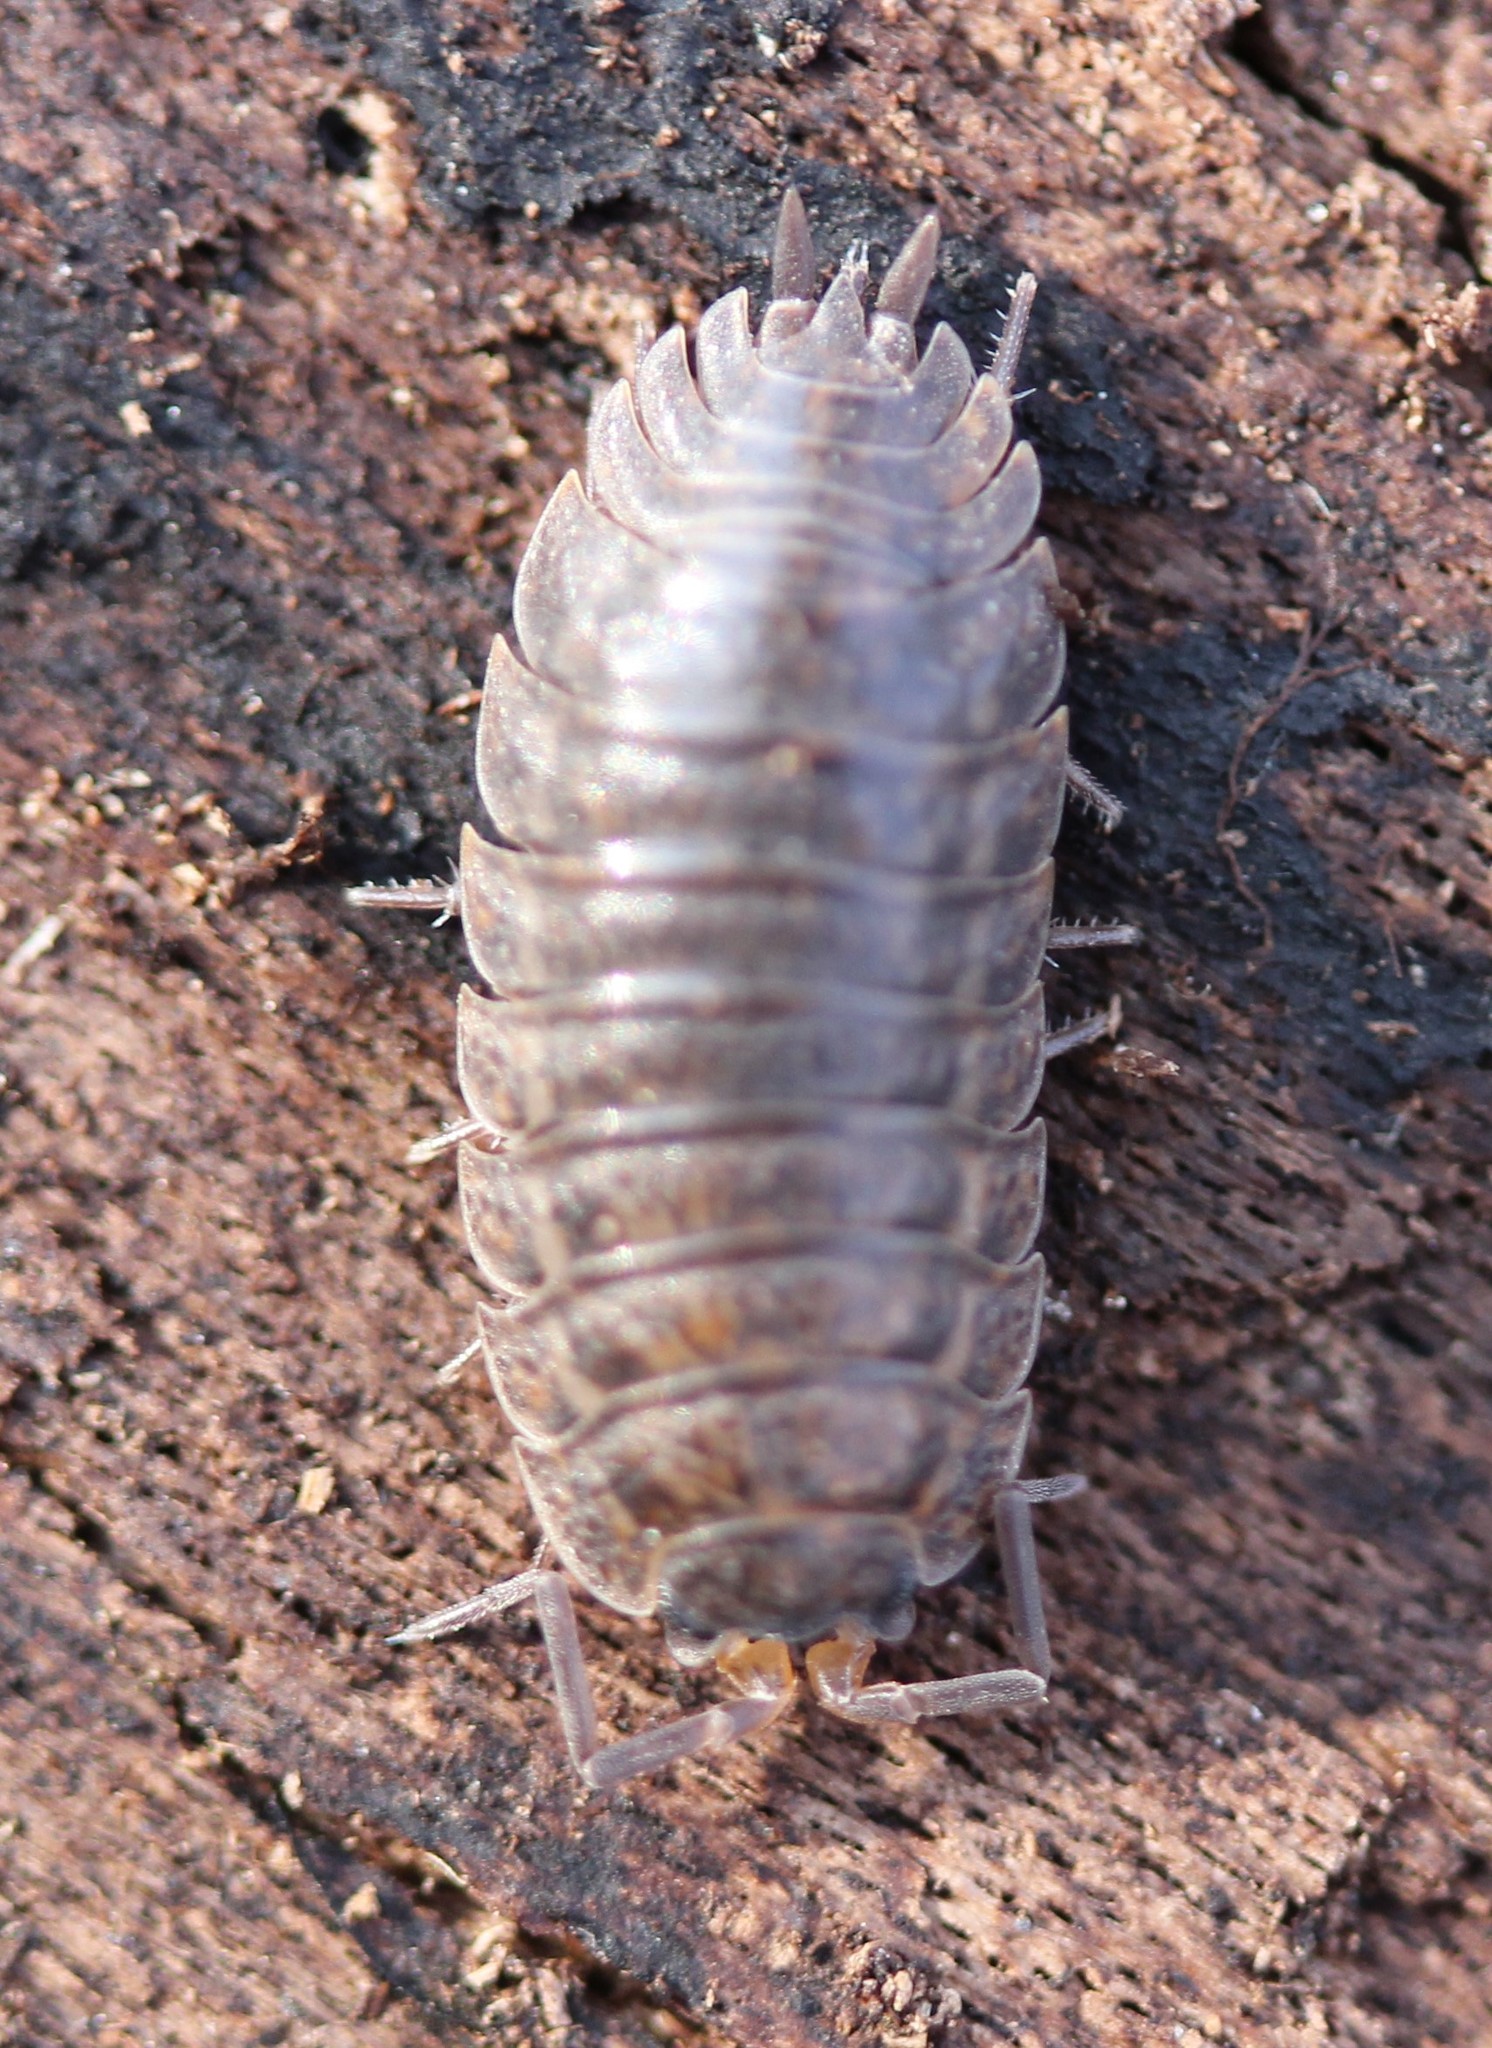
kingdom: Animalia
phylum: Arthropoda
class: Malacostraca
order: Isopoda
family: Trachelipodidae
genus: Trachelipus
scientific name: Trachelipus rathkii
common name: Isopod
